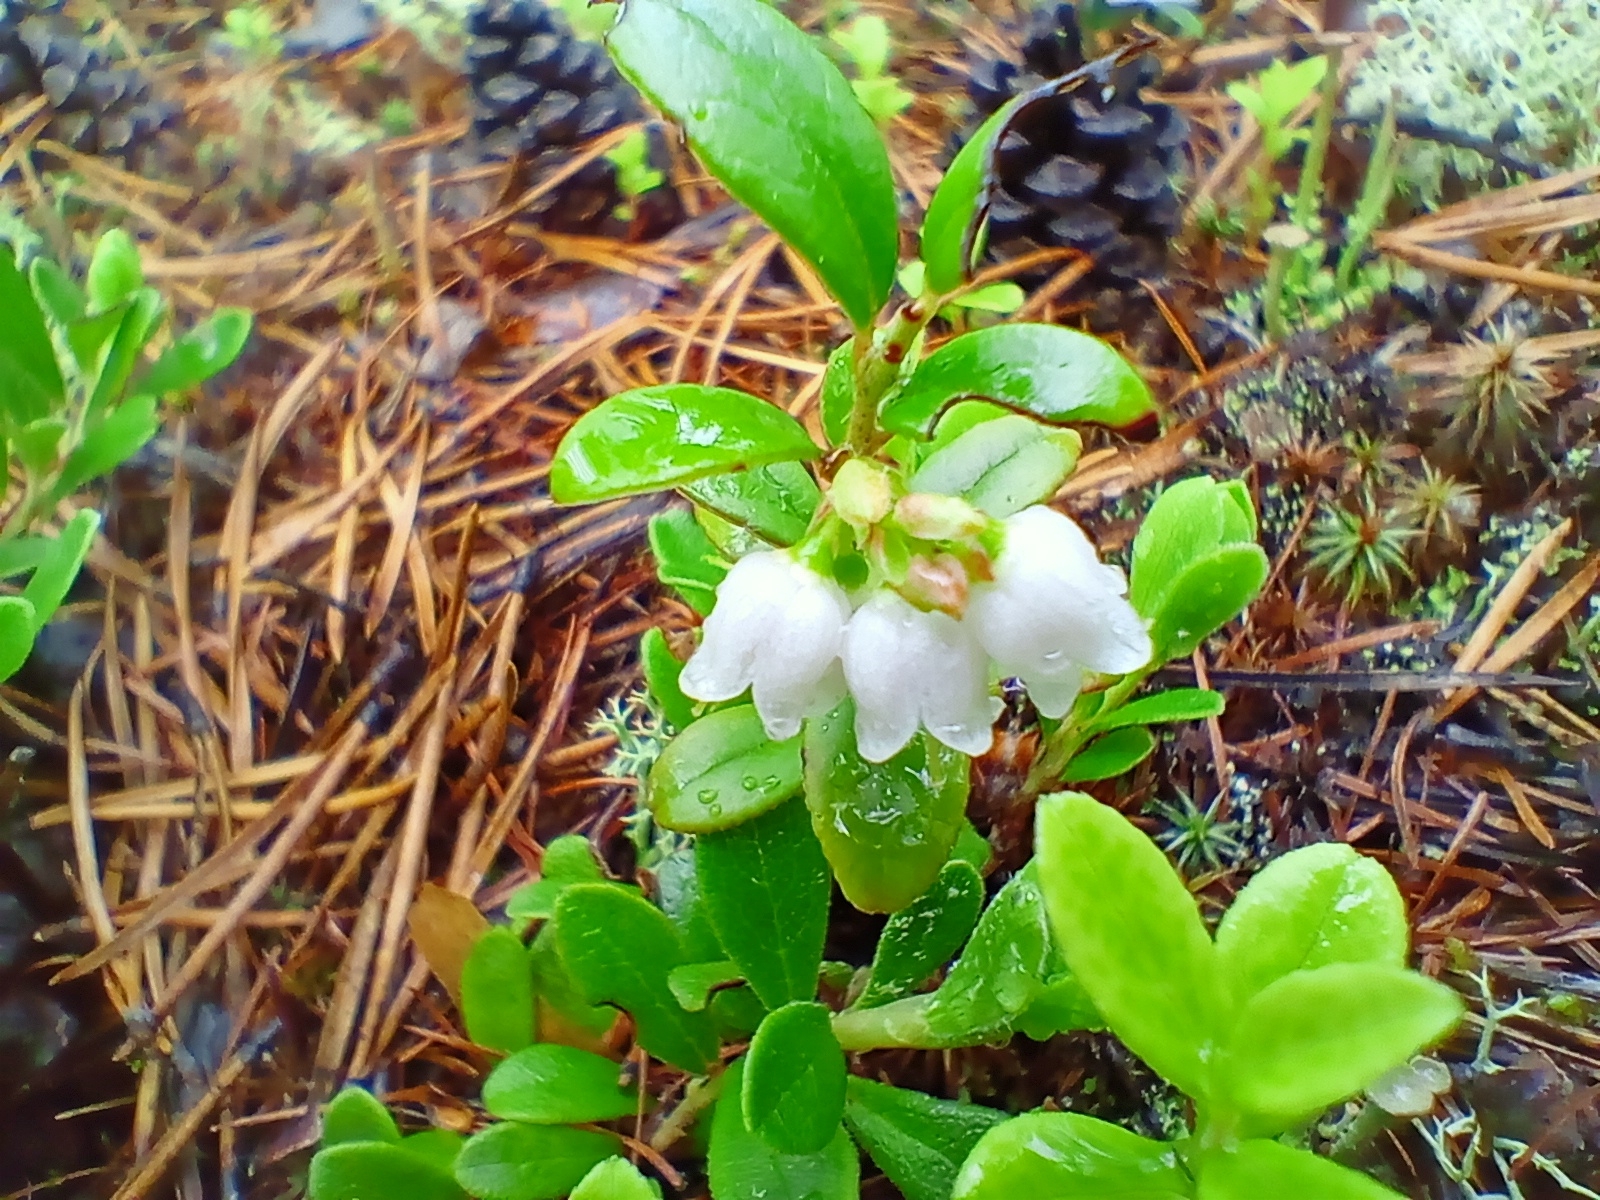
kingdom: Plantae
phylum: Tracheophyta
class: Magnoliopsida
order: Ericales
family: Ericaceae
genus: Vaccinium
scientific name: Vaccinium vitis-idaea
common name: Cowberry
